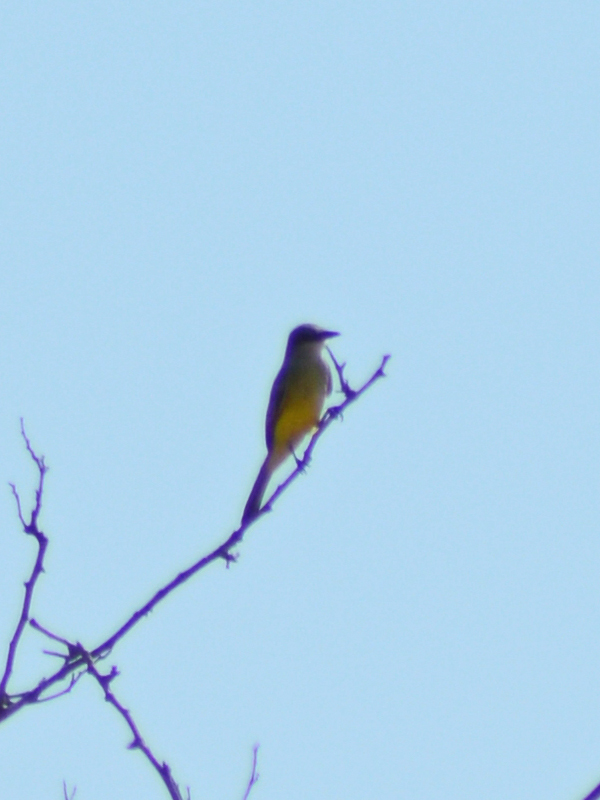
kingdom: Animalia
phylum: Chordata
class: Aves
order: Passeriformes
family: Tyrannidae
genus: Tyrannus
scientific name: Tyrannus melancholicus
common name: Tropical kingbird
